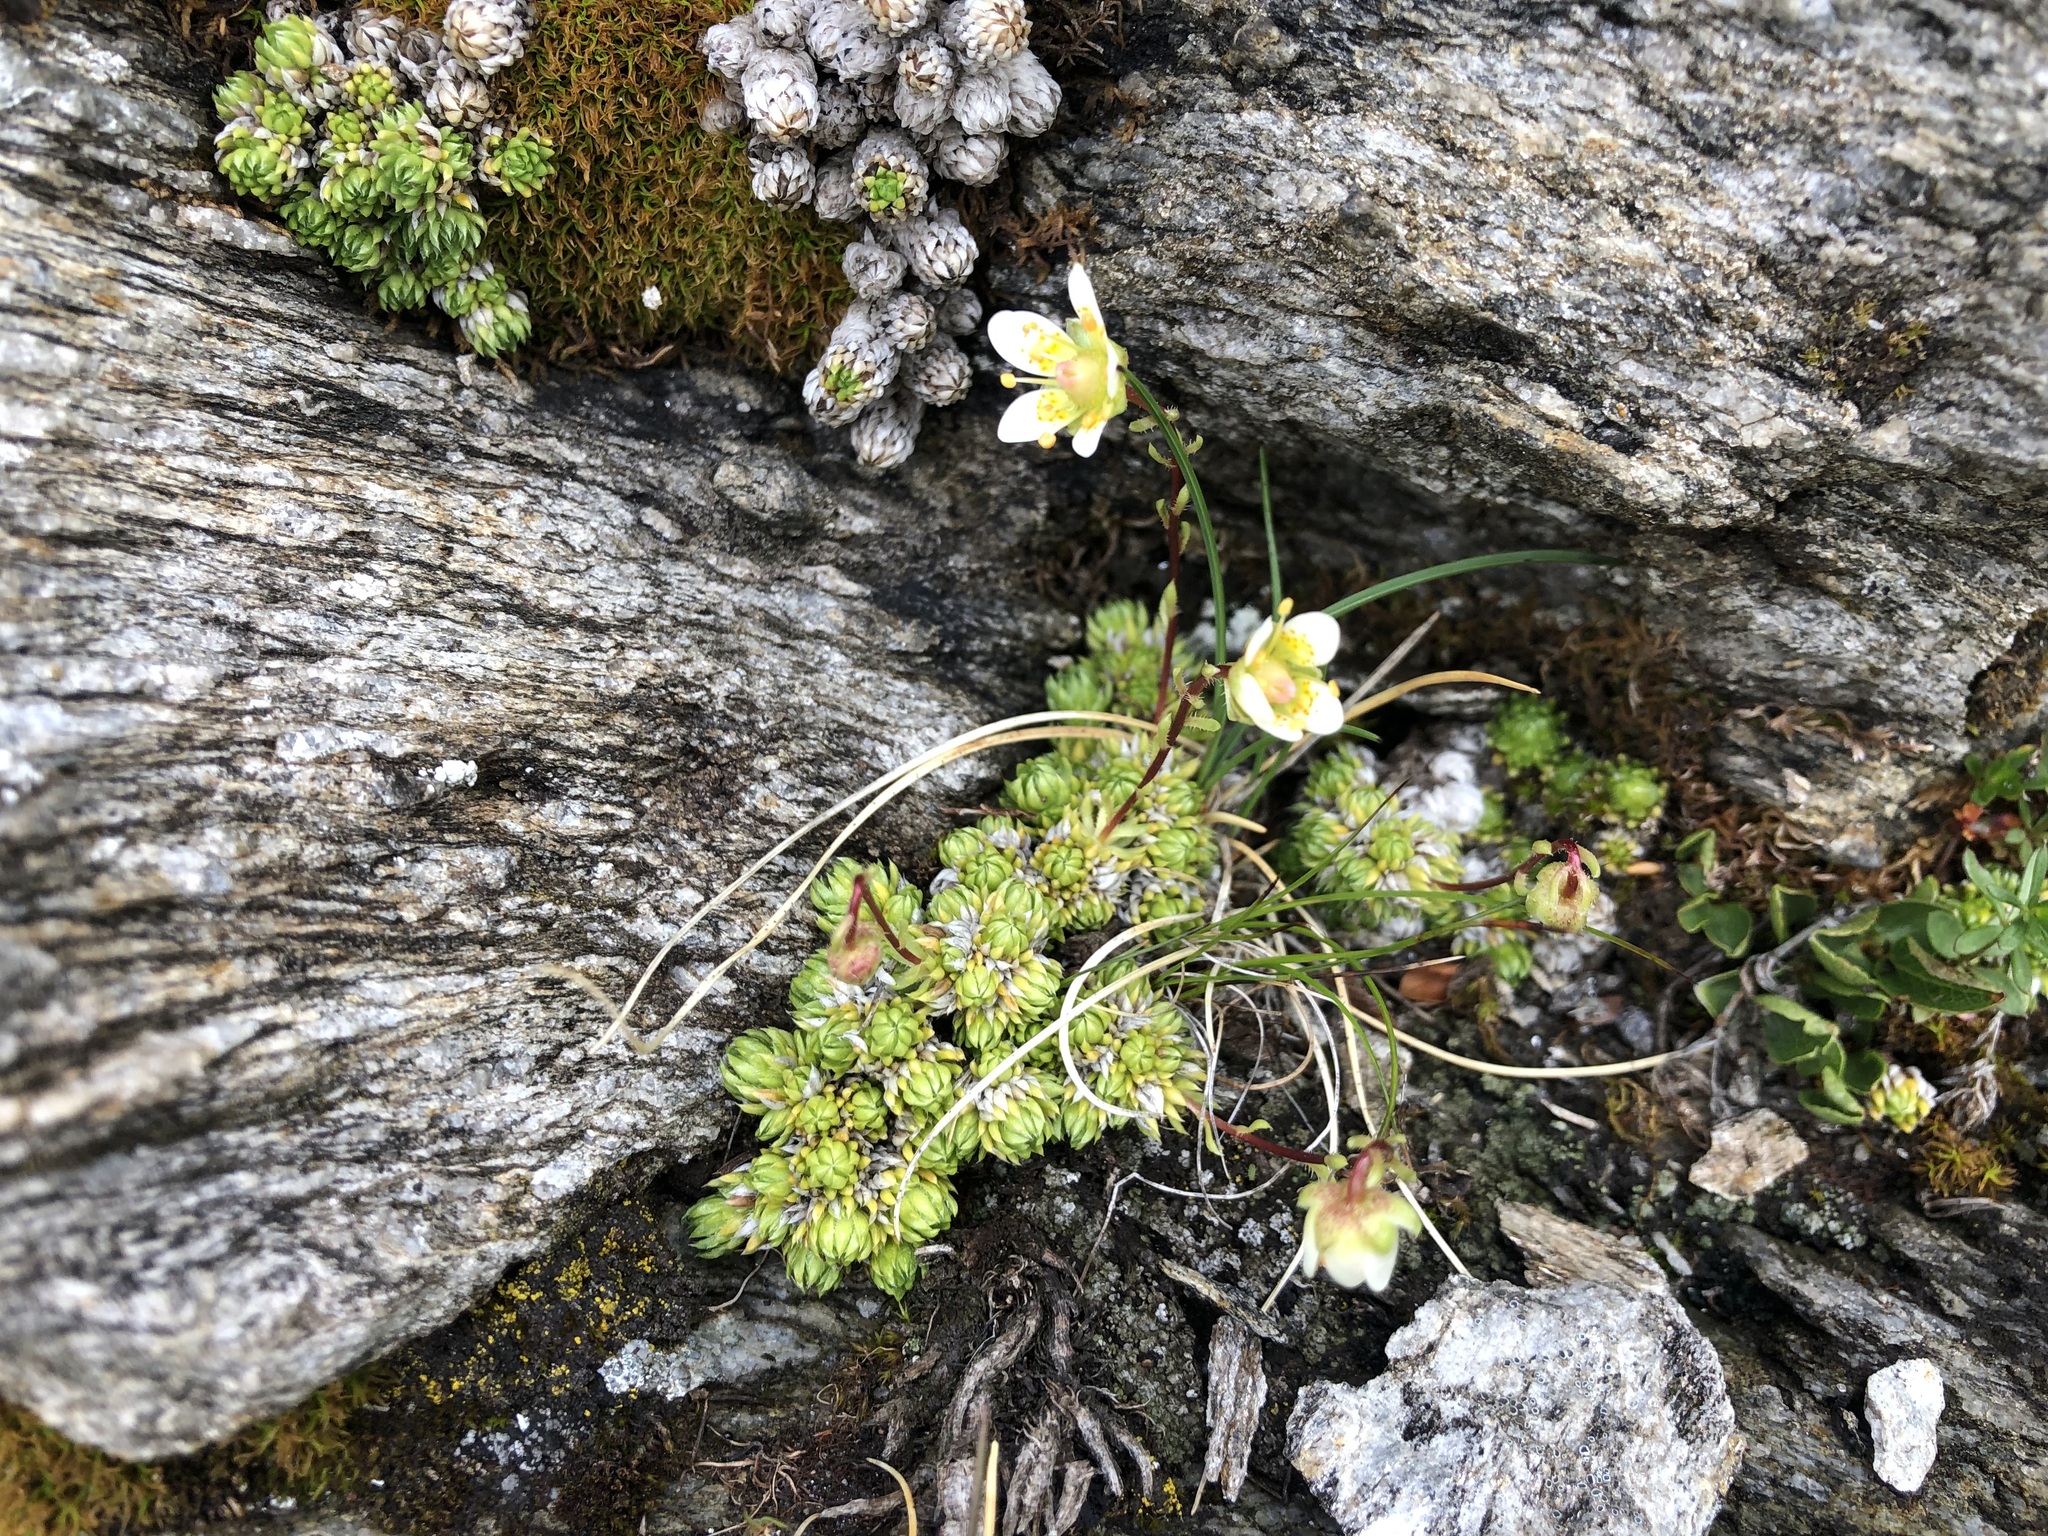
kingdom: Plantae
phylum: Tracheophyta
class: Magnoliopsida
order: Saxifragales
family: Saxifragaceae
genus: Saxifraga
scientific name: Saxifraga bryoides
